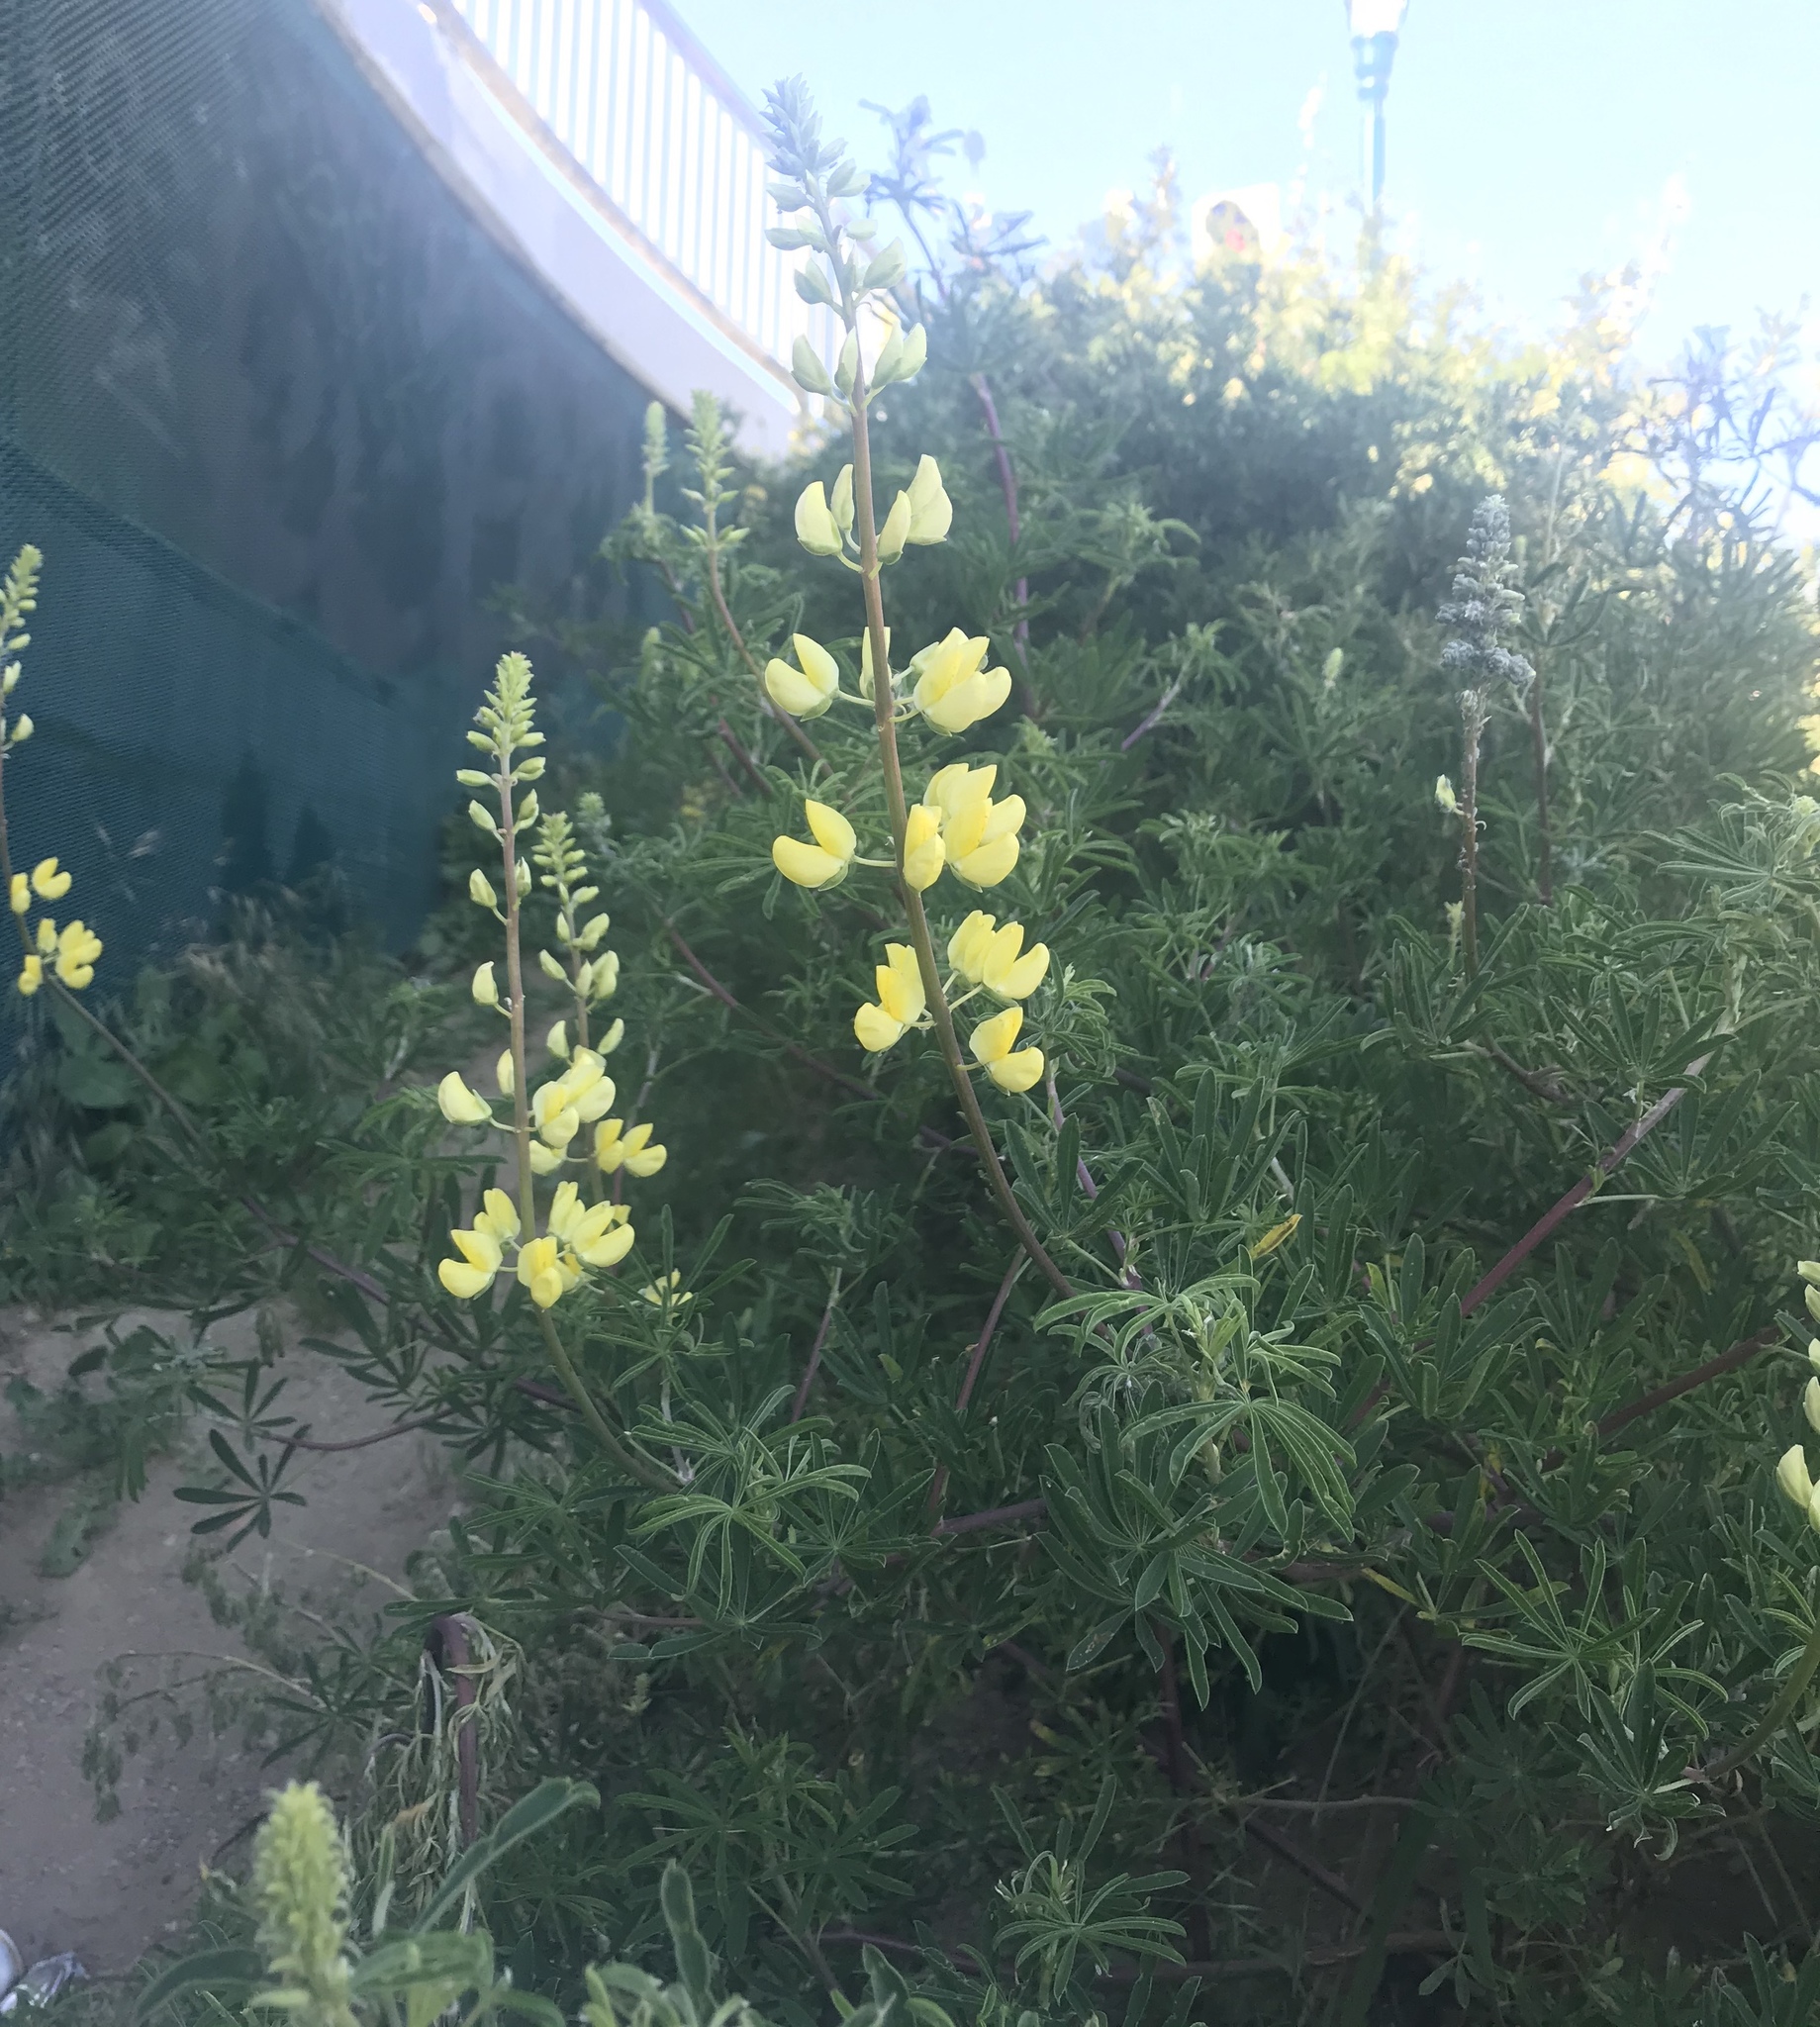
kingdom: Plantae
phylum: Tracheophyta
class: Magnoliopsida
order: Fabales
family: Fabaceae
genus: Lupinus
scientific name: Lupinus arboreus
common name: Yellow bush lupine
